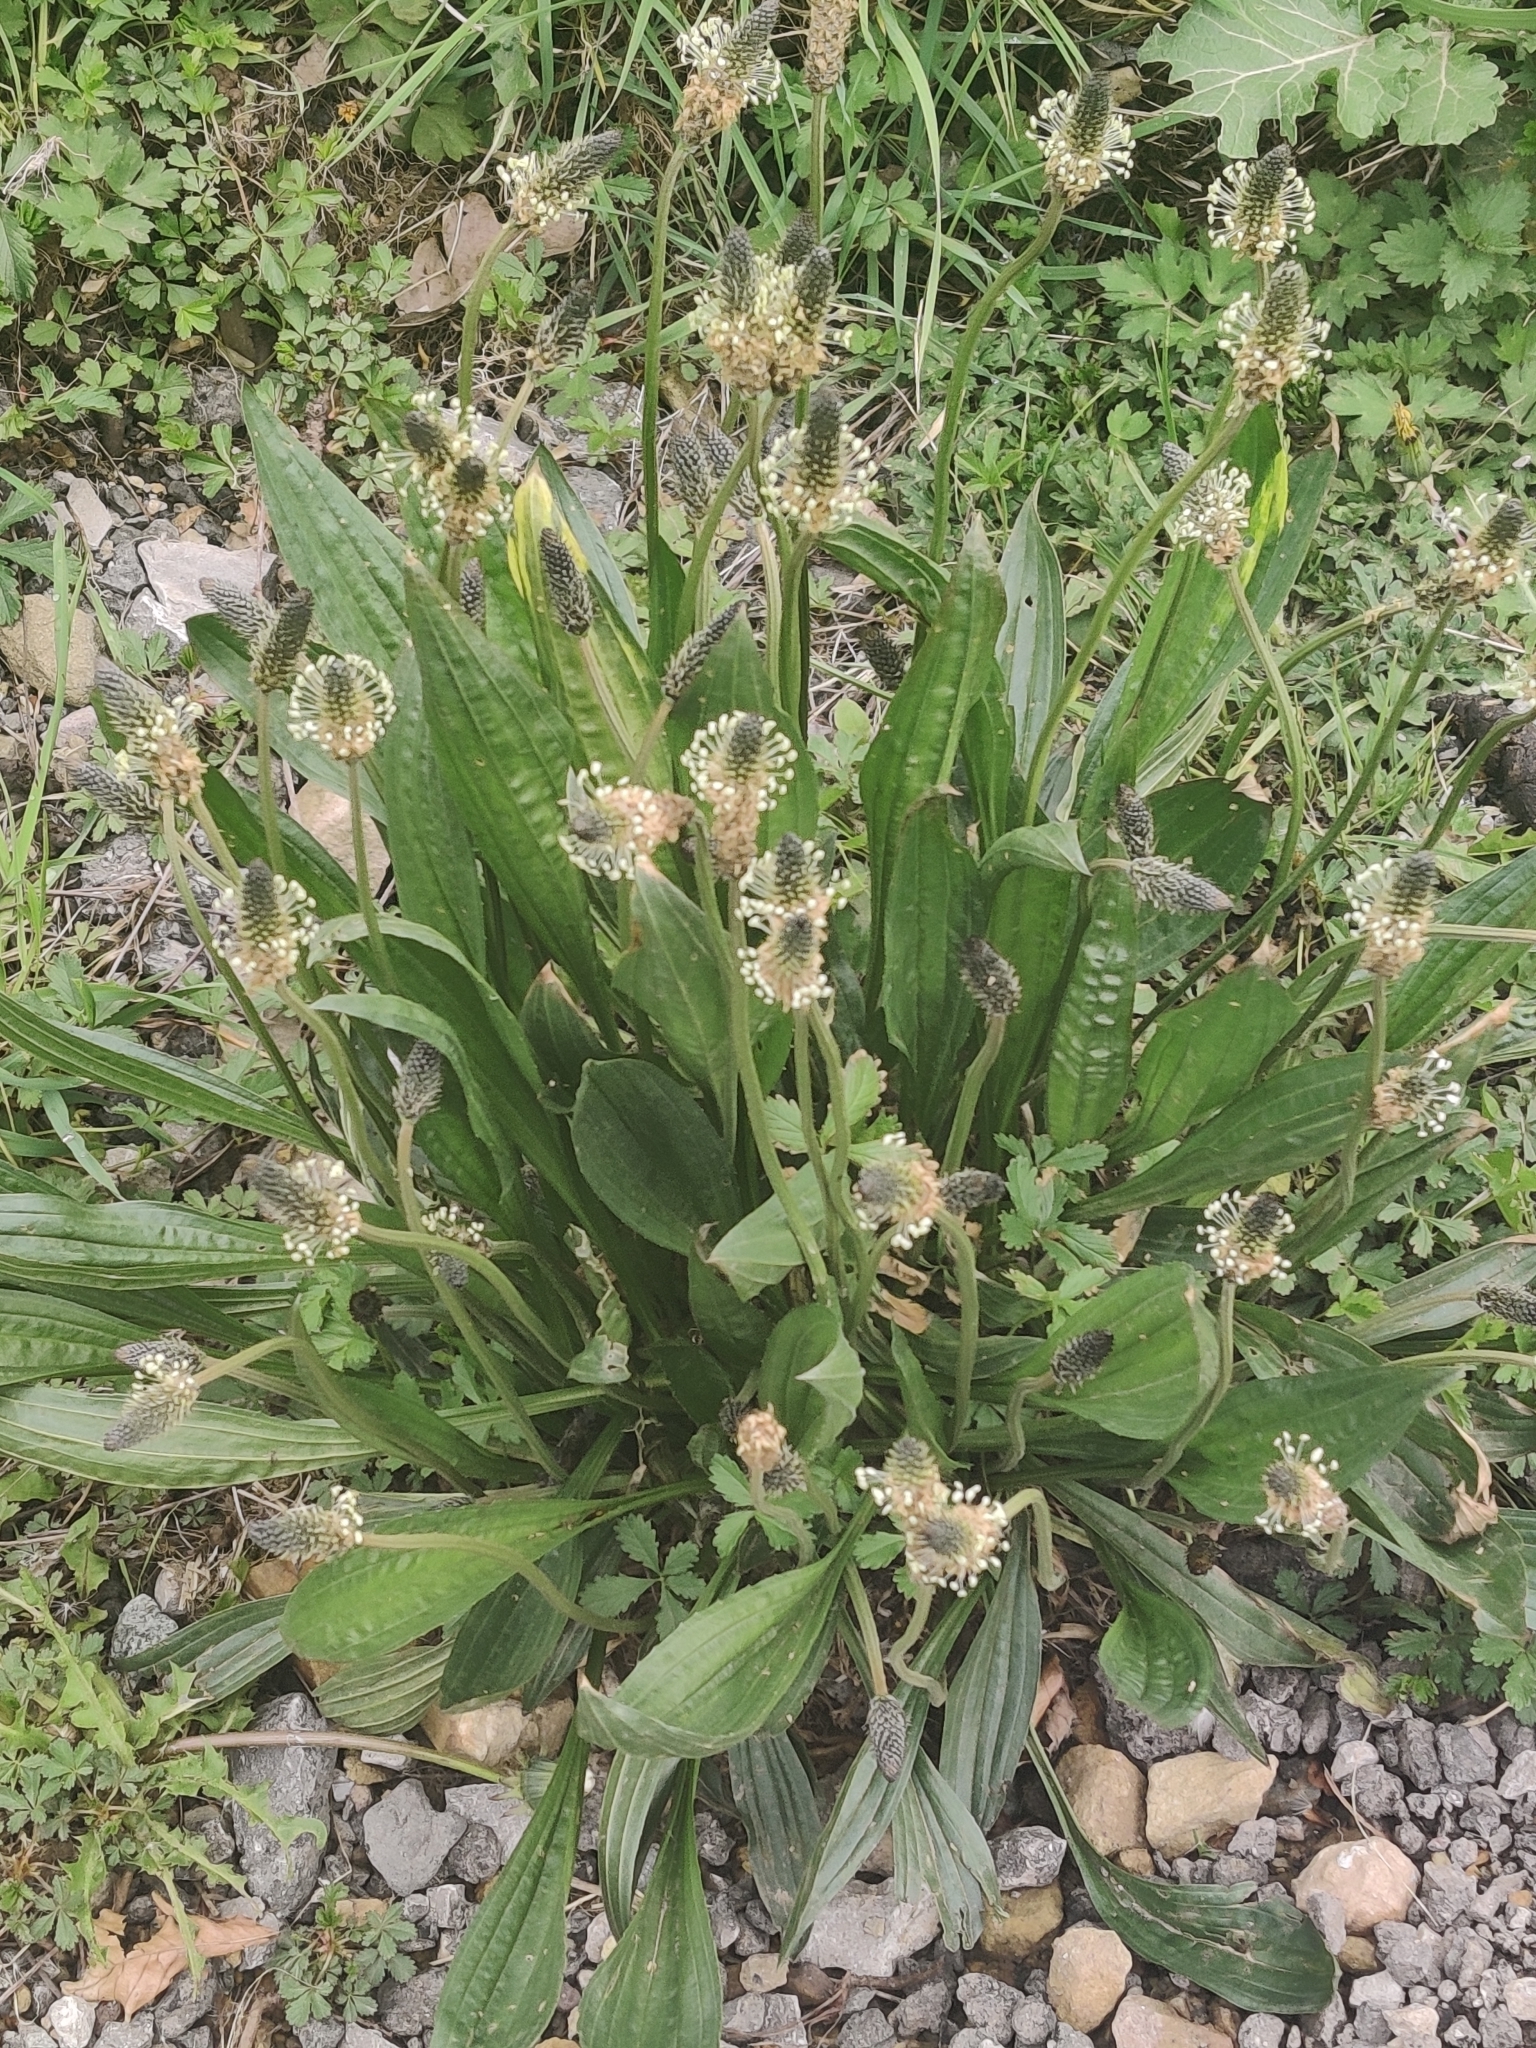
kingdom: Plantae
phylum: Tracheophyta
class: Magnoliopsida
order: Lamiales
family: Plantaginaceae
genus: Plantago
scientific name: Plantago lanceolata
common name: Ribwort plantain
